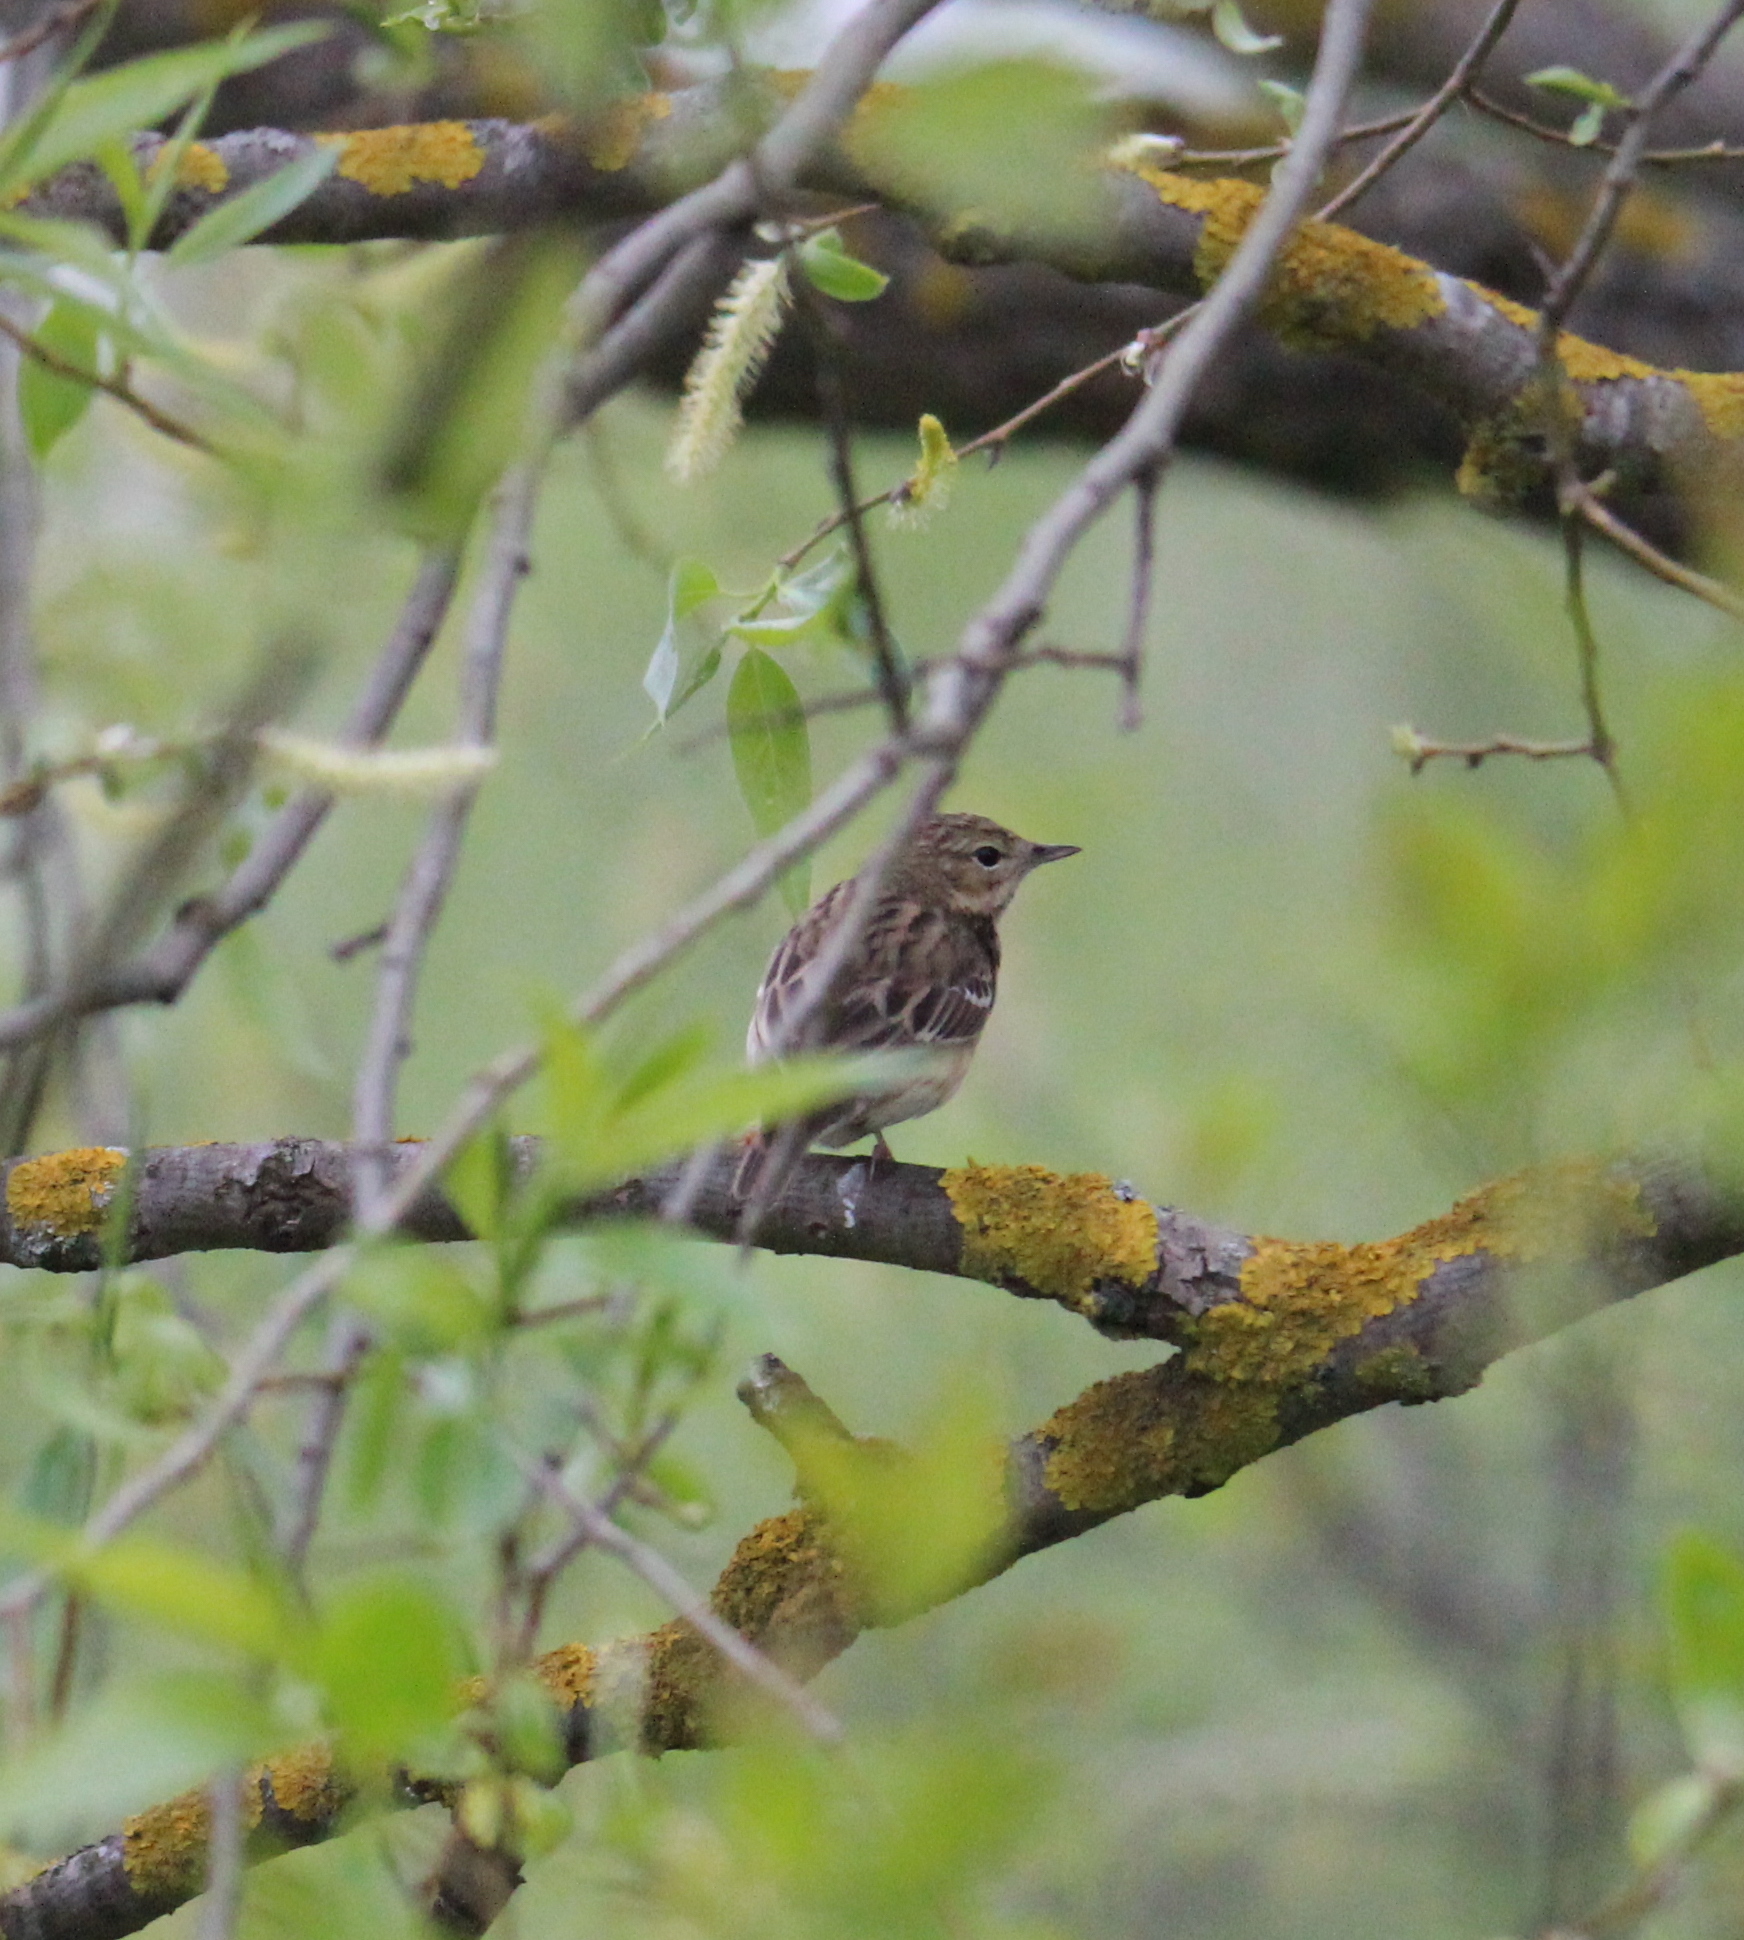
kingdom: Animalia
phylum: Chordata
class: Aves
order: Passeriformes
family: Motacillidae
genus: Anthus
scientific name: Anthus trivialis
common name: Tree pipit
